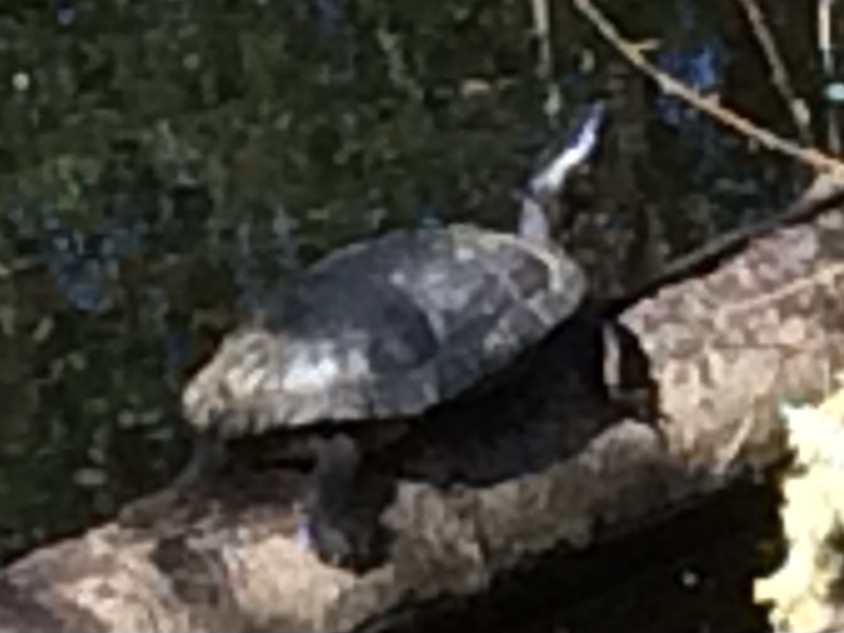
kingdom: Animalia
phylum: Chordata
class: Testudines
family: Emydidae
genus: Trachemys
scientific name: Trachemys scripta
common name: Slider
